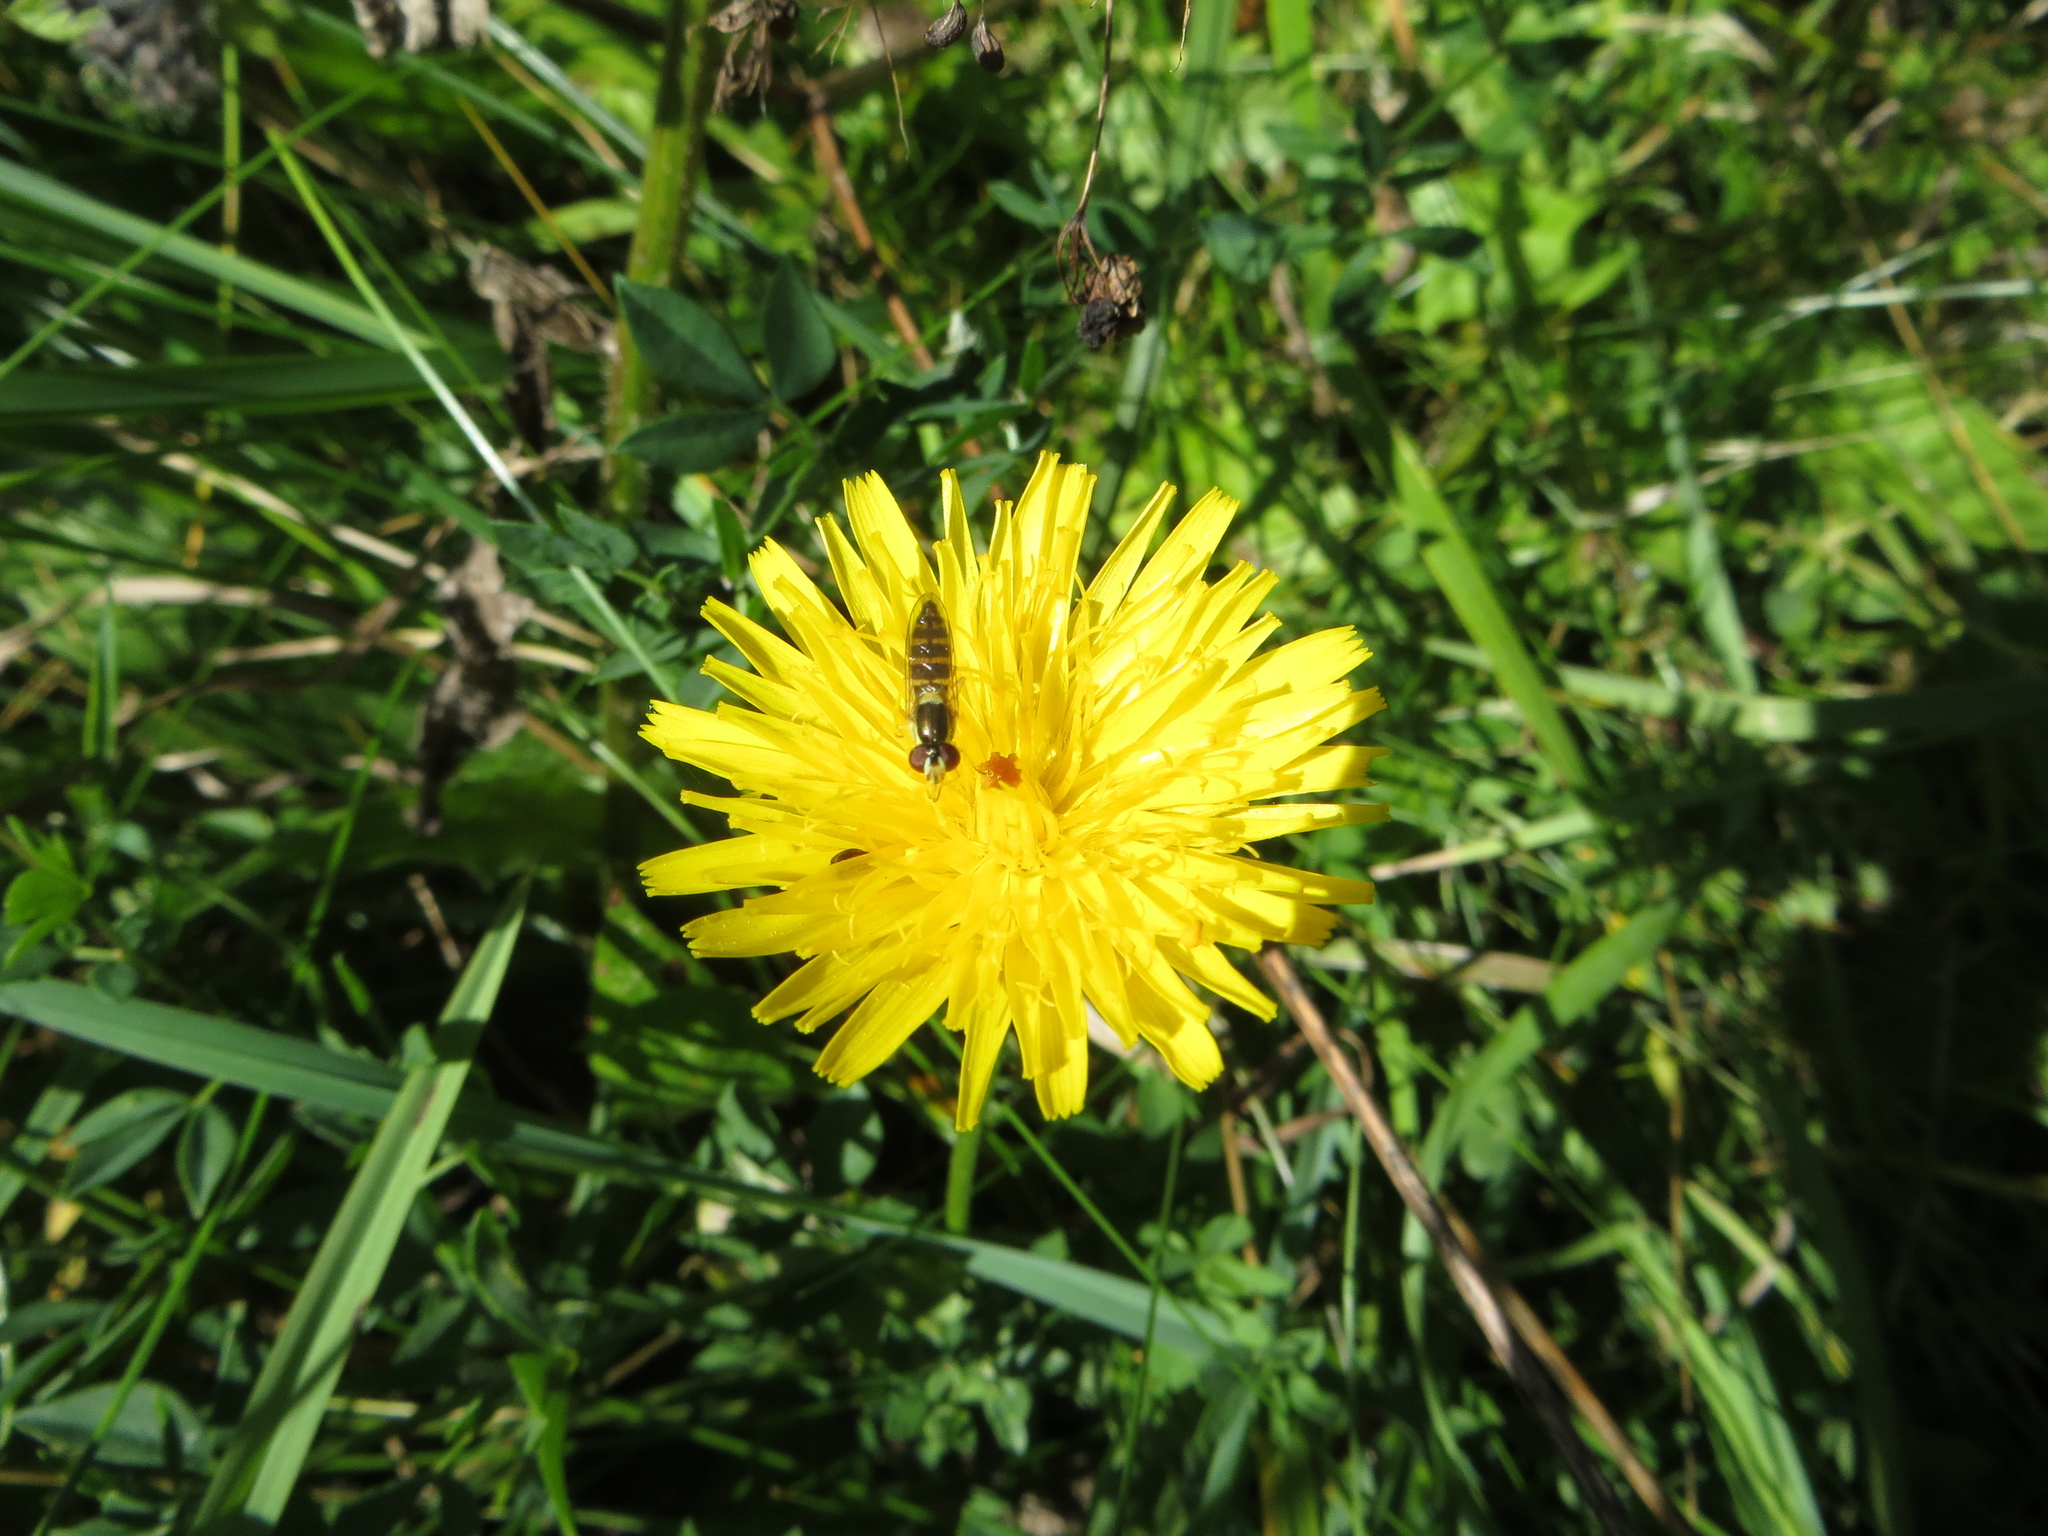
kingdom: Animalia
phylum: Arthropoda
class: Insecta
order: Diptera
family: Syrphidae
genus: Sphaerophoria
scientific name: Sphaerophoria
